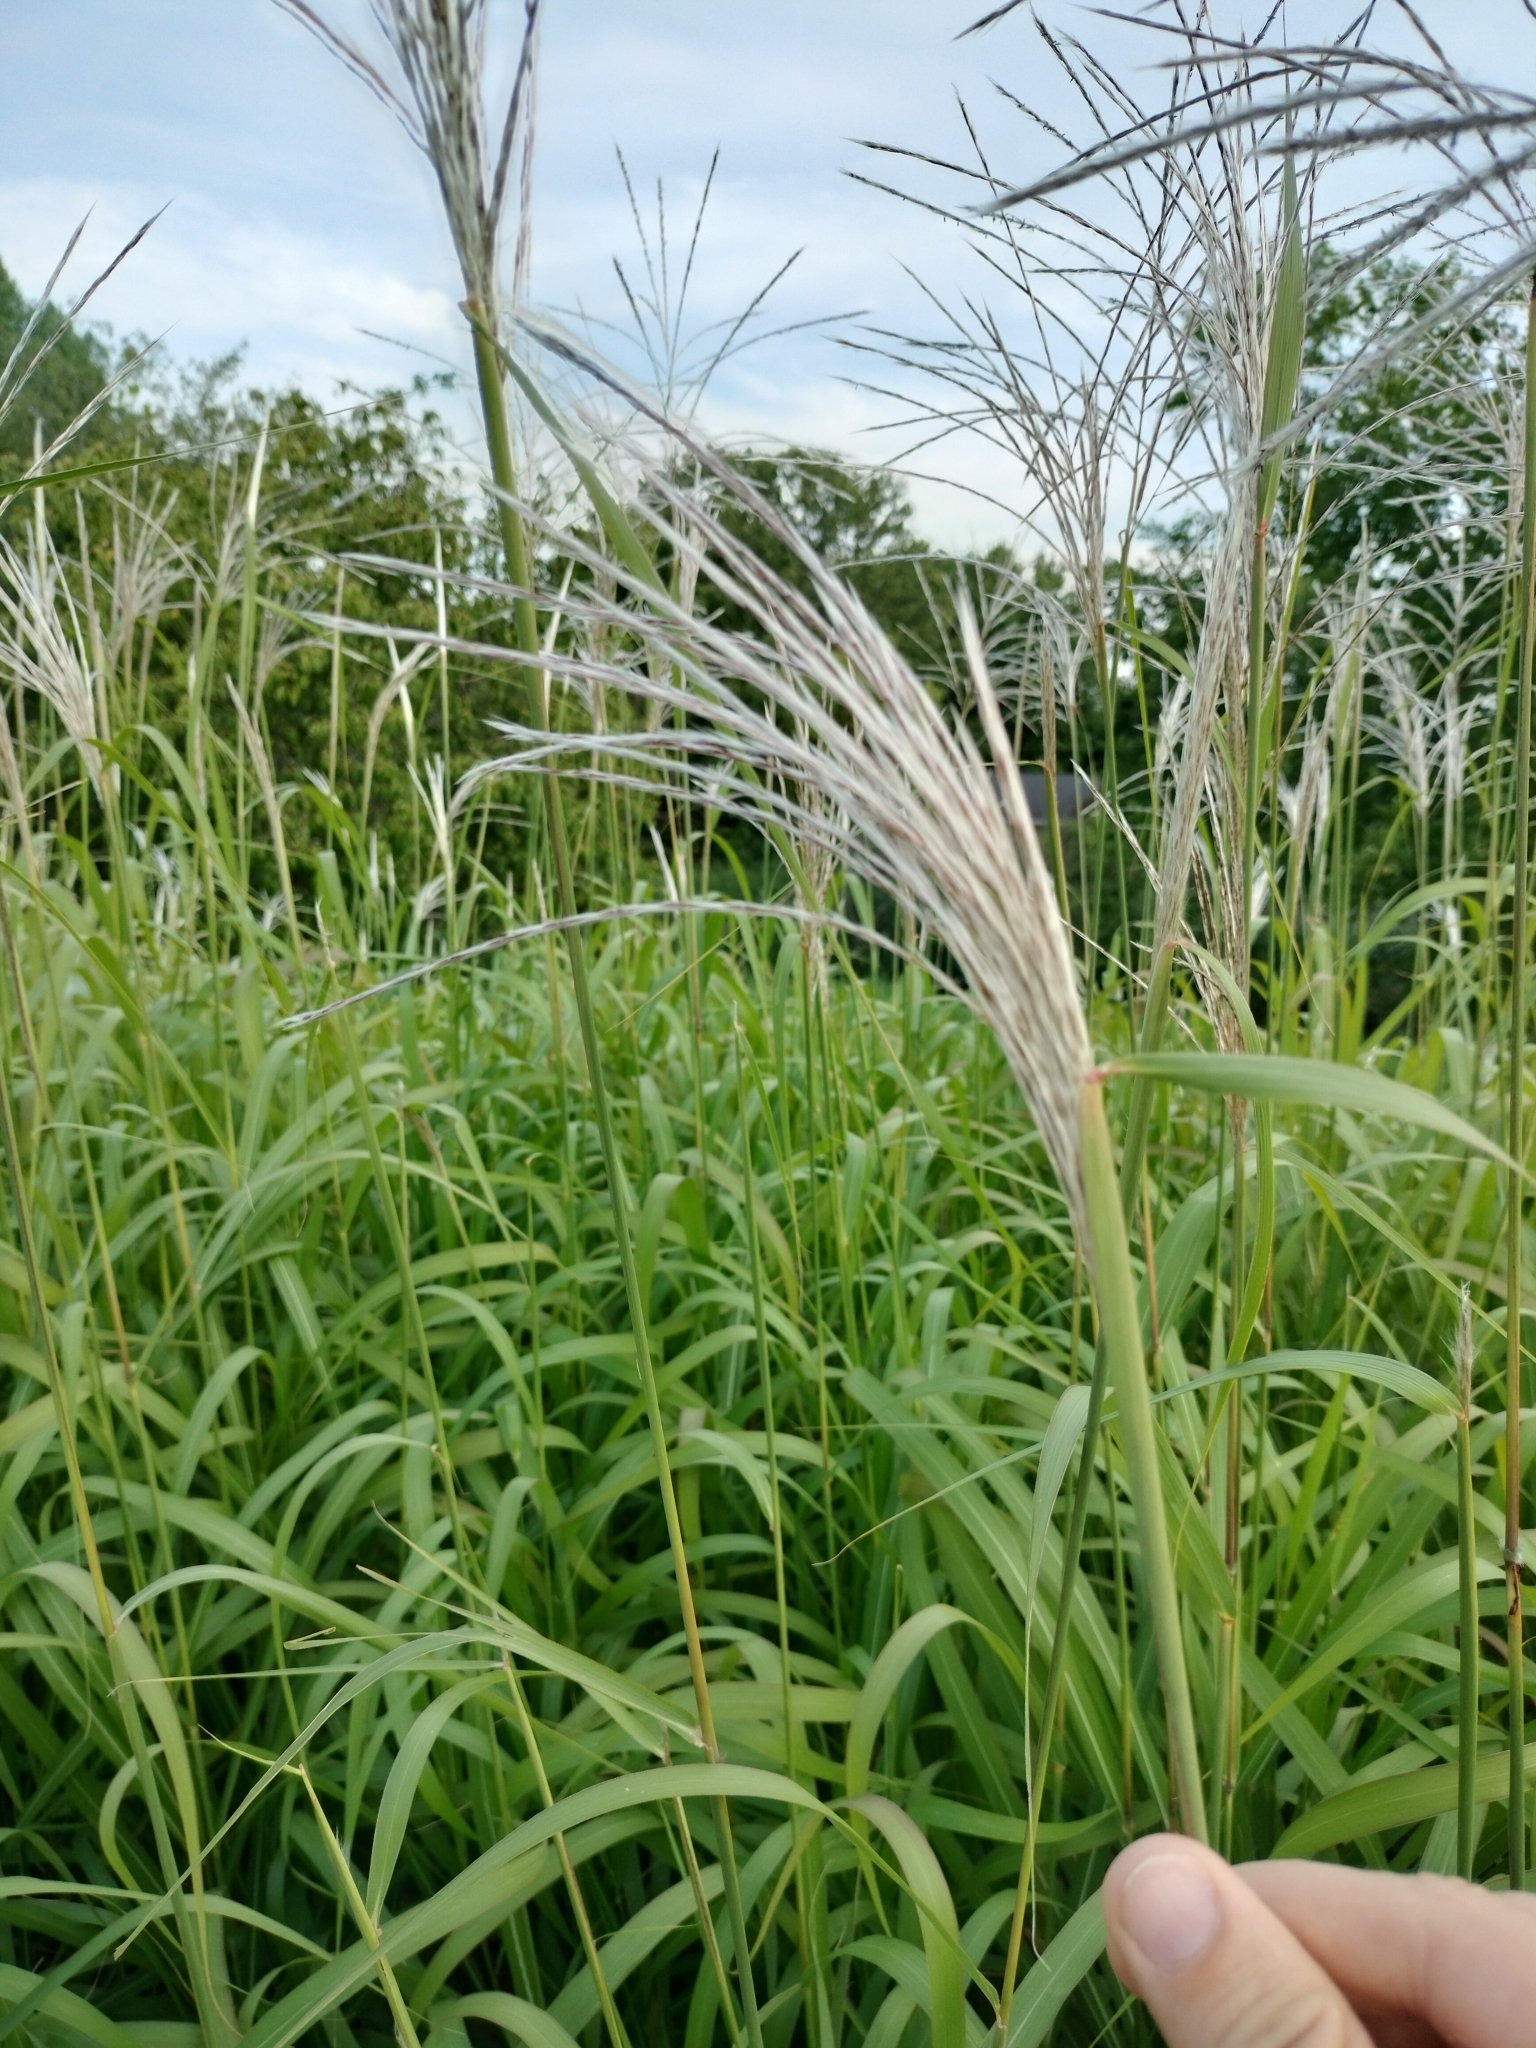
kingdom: Plantae
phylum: Tracheophyta
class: Liliopsida
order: Poales
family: Poaceae
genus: Miscanthus
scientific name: Miscanthus sacchariflorus
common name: Amur silver grass
